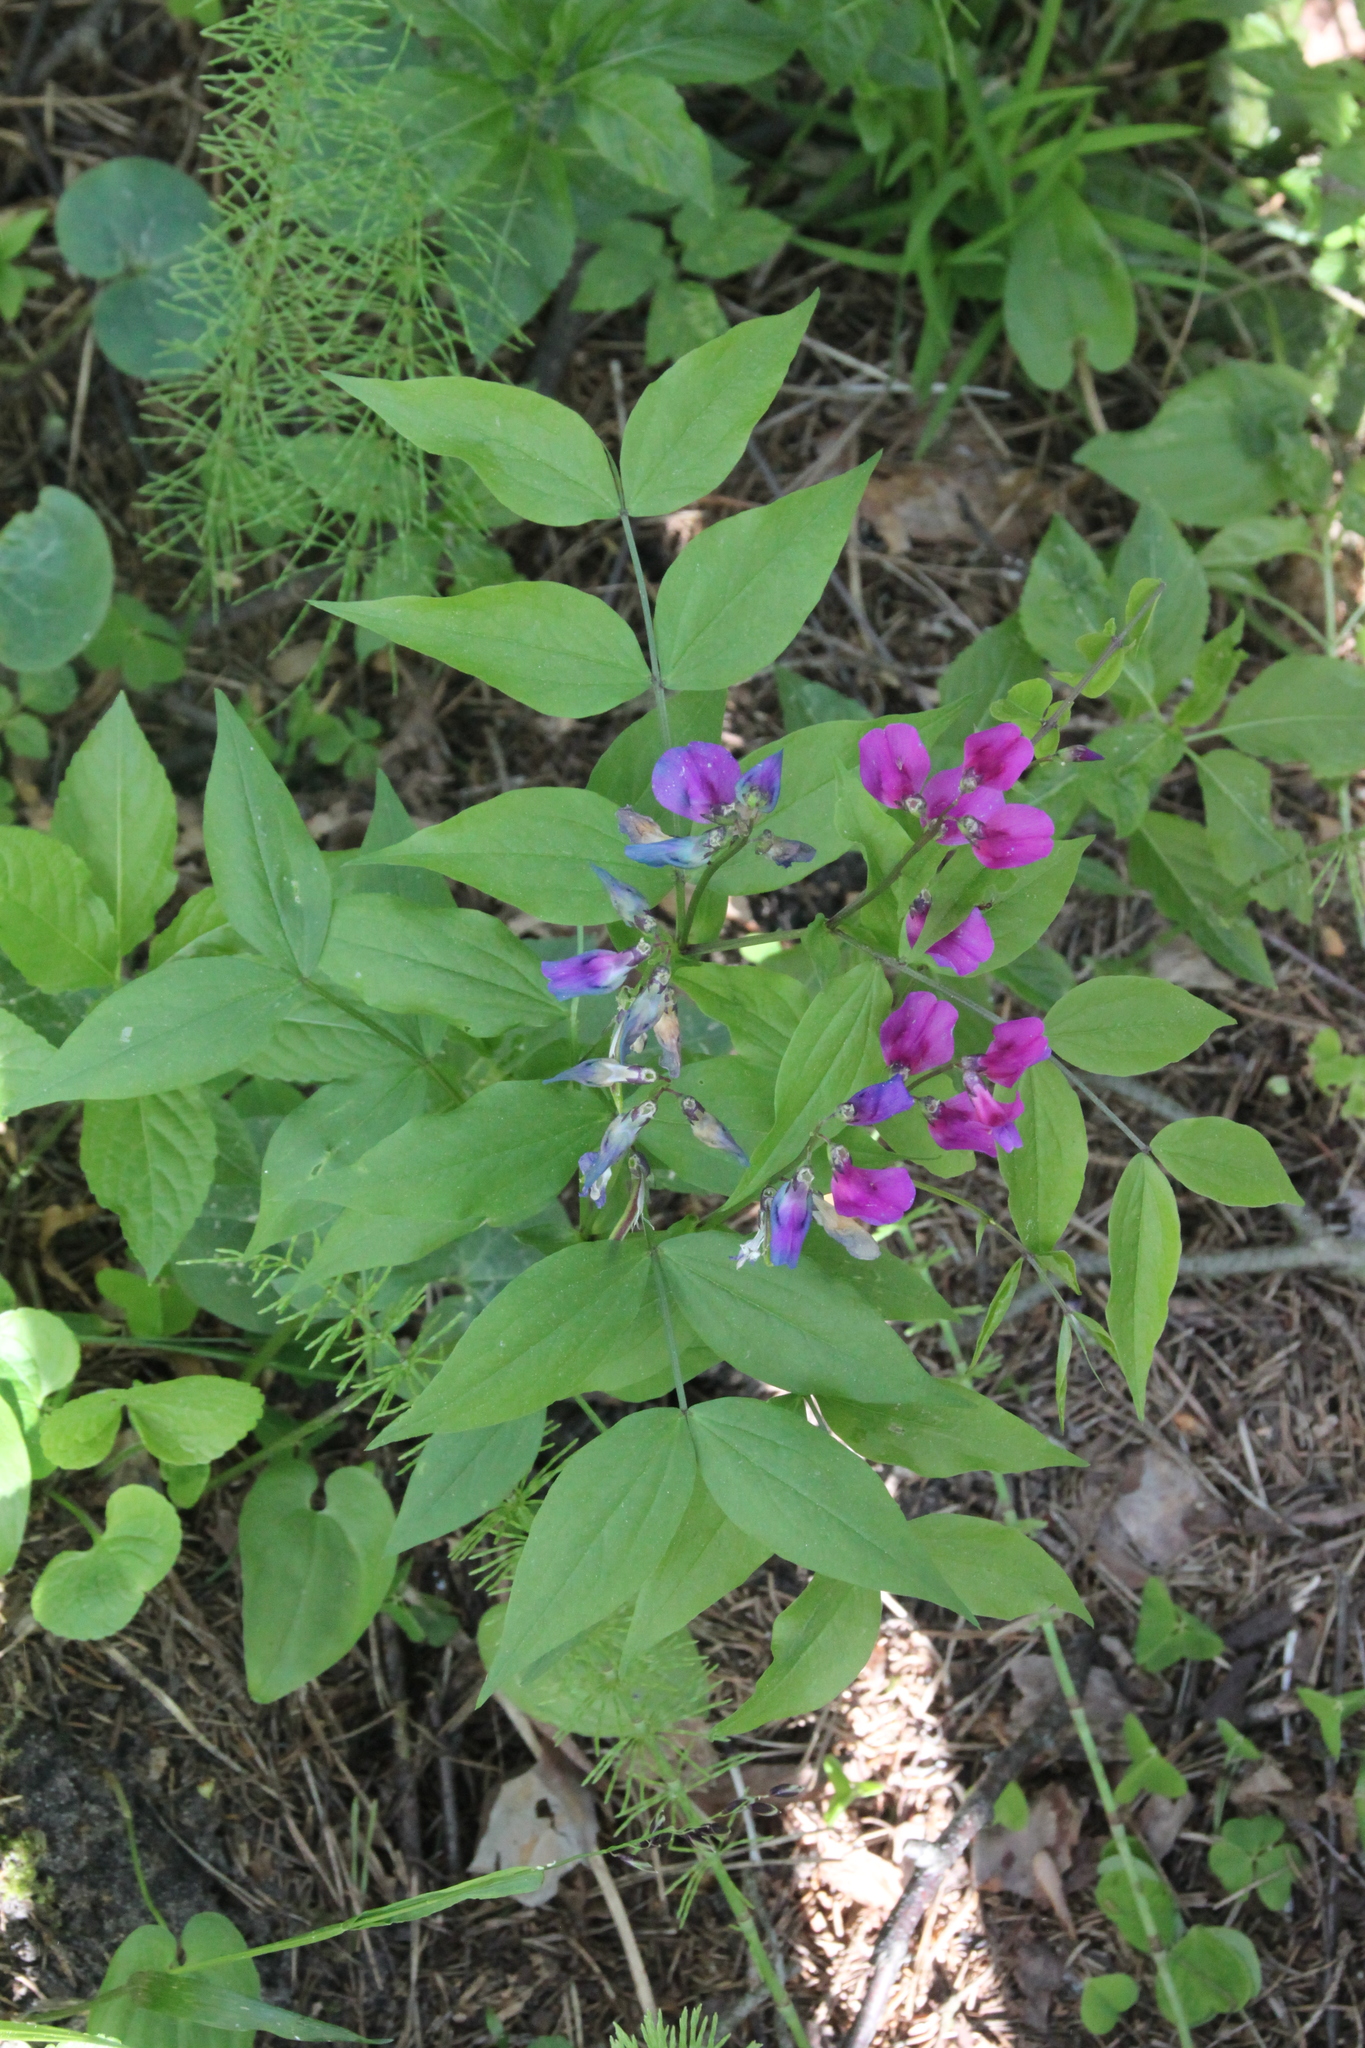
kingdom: Plantae
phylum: Tracheophyta
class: Magnoliopsida
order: Fabales
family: Fabaceae
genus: Lathyrus
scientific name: Lathyrus vernus
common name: Spring pea
